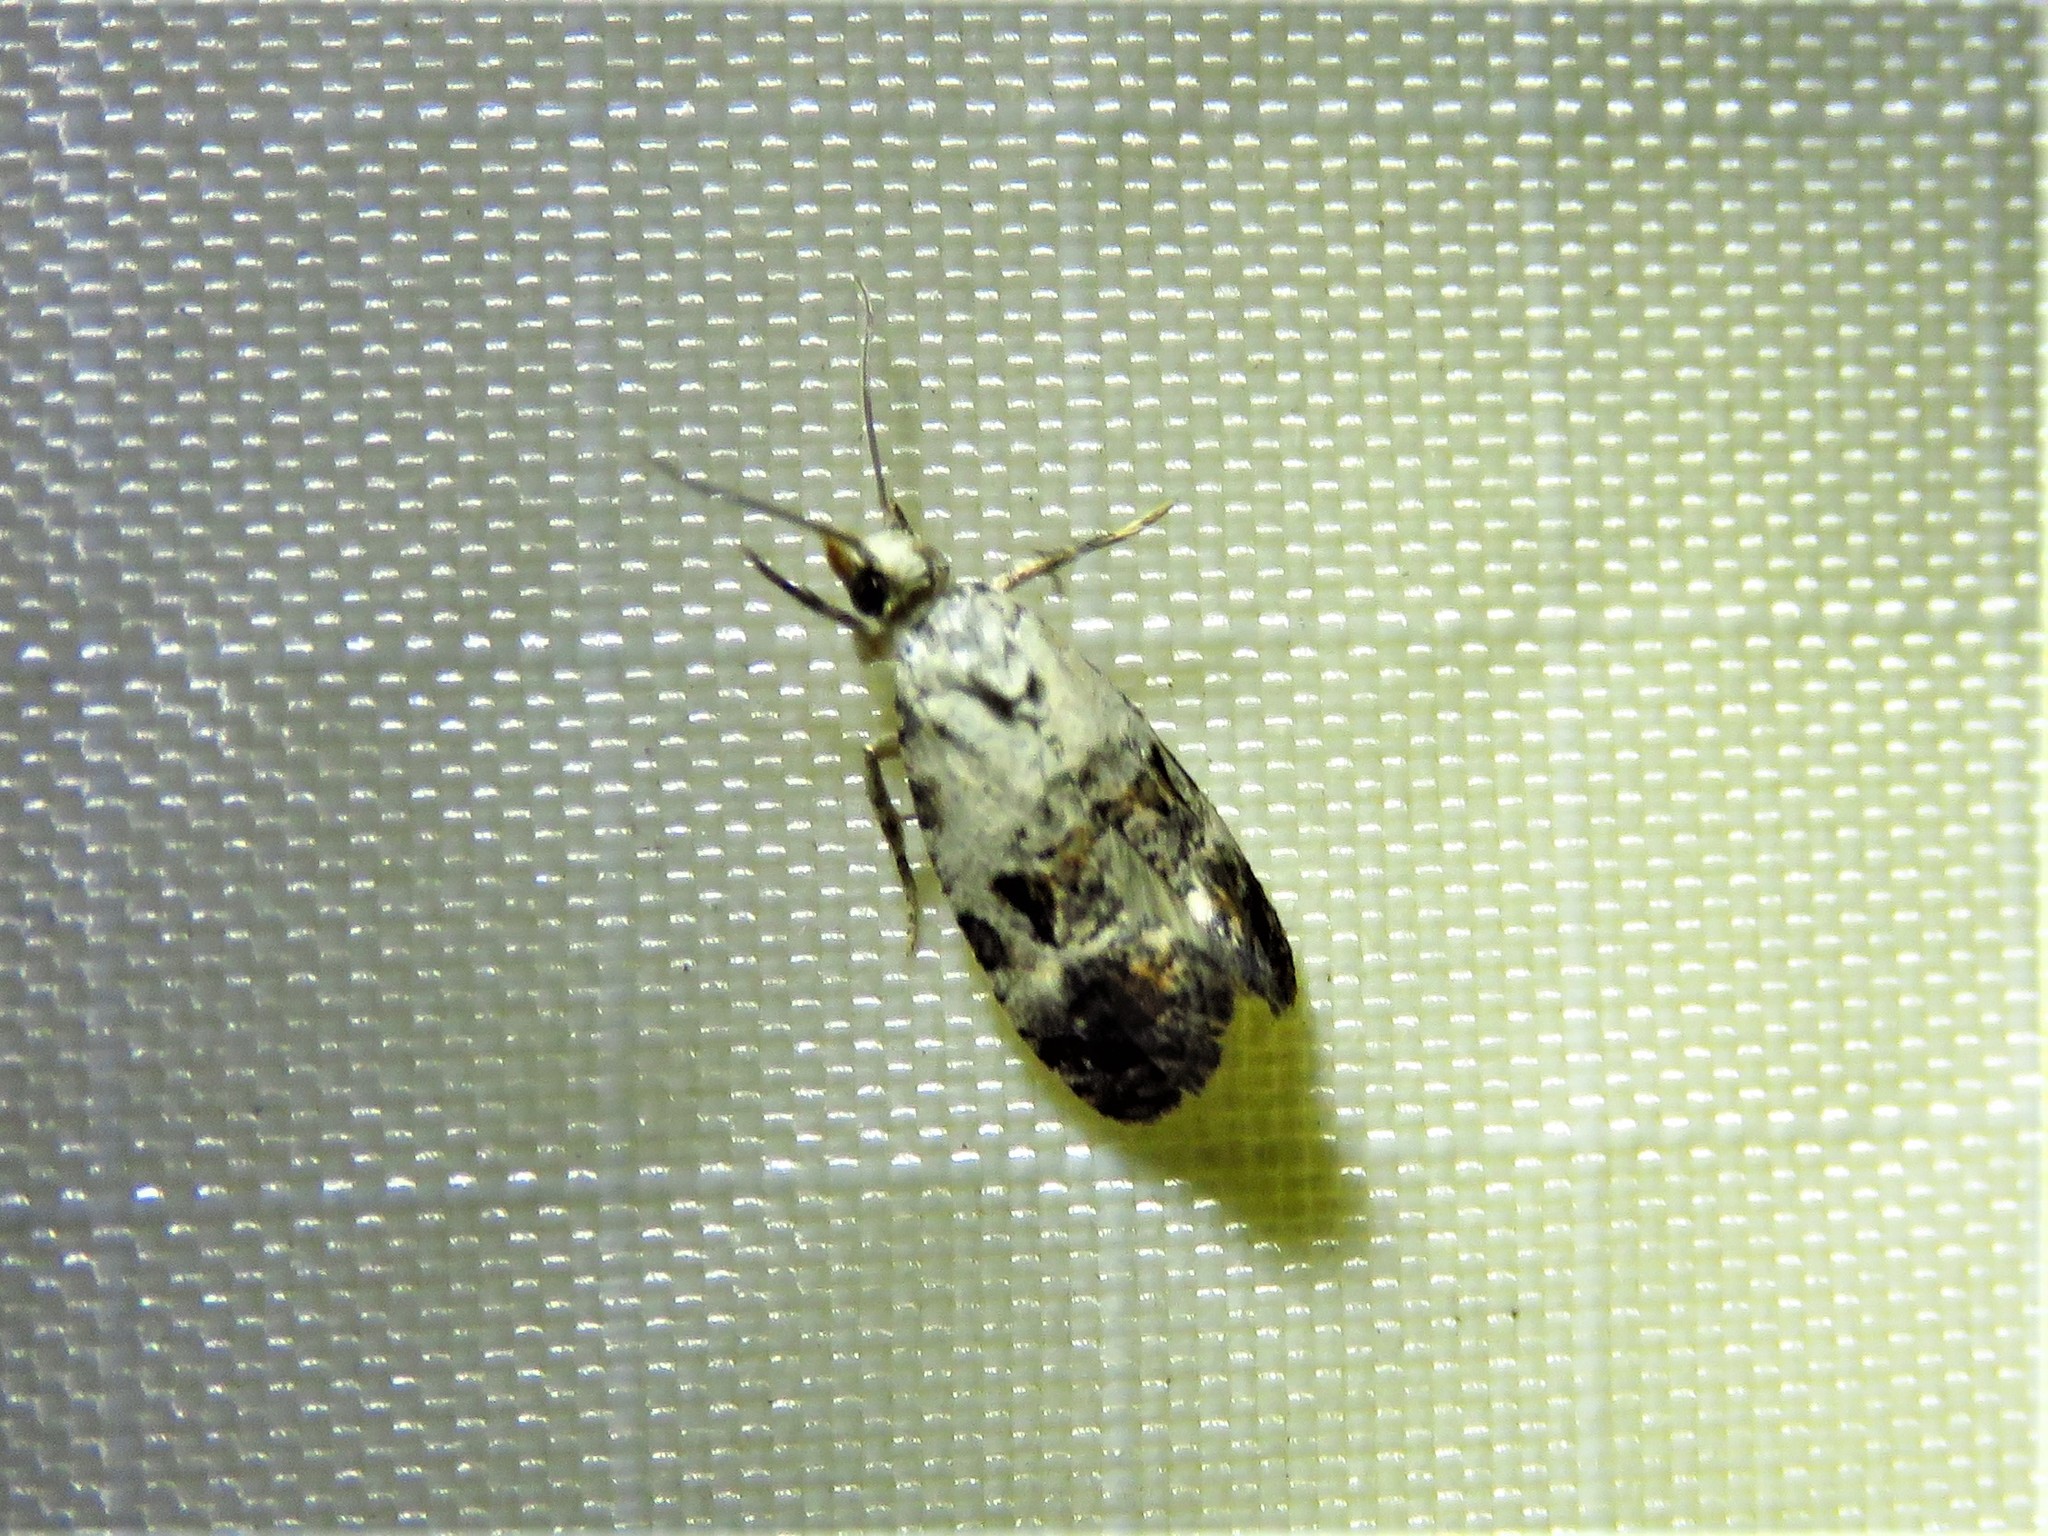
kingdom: Animalia
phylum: Arthropoda
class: Insecta
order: Lepidoptera
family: Tortricidae
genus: Rudenia
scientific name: Rudenia leguminana
